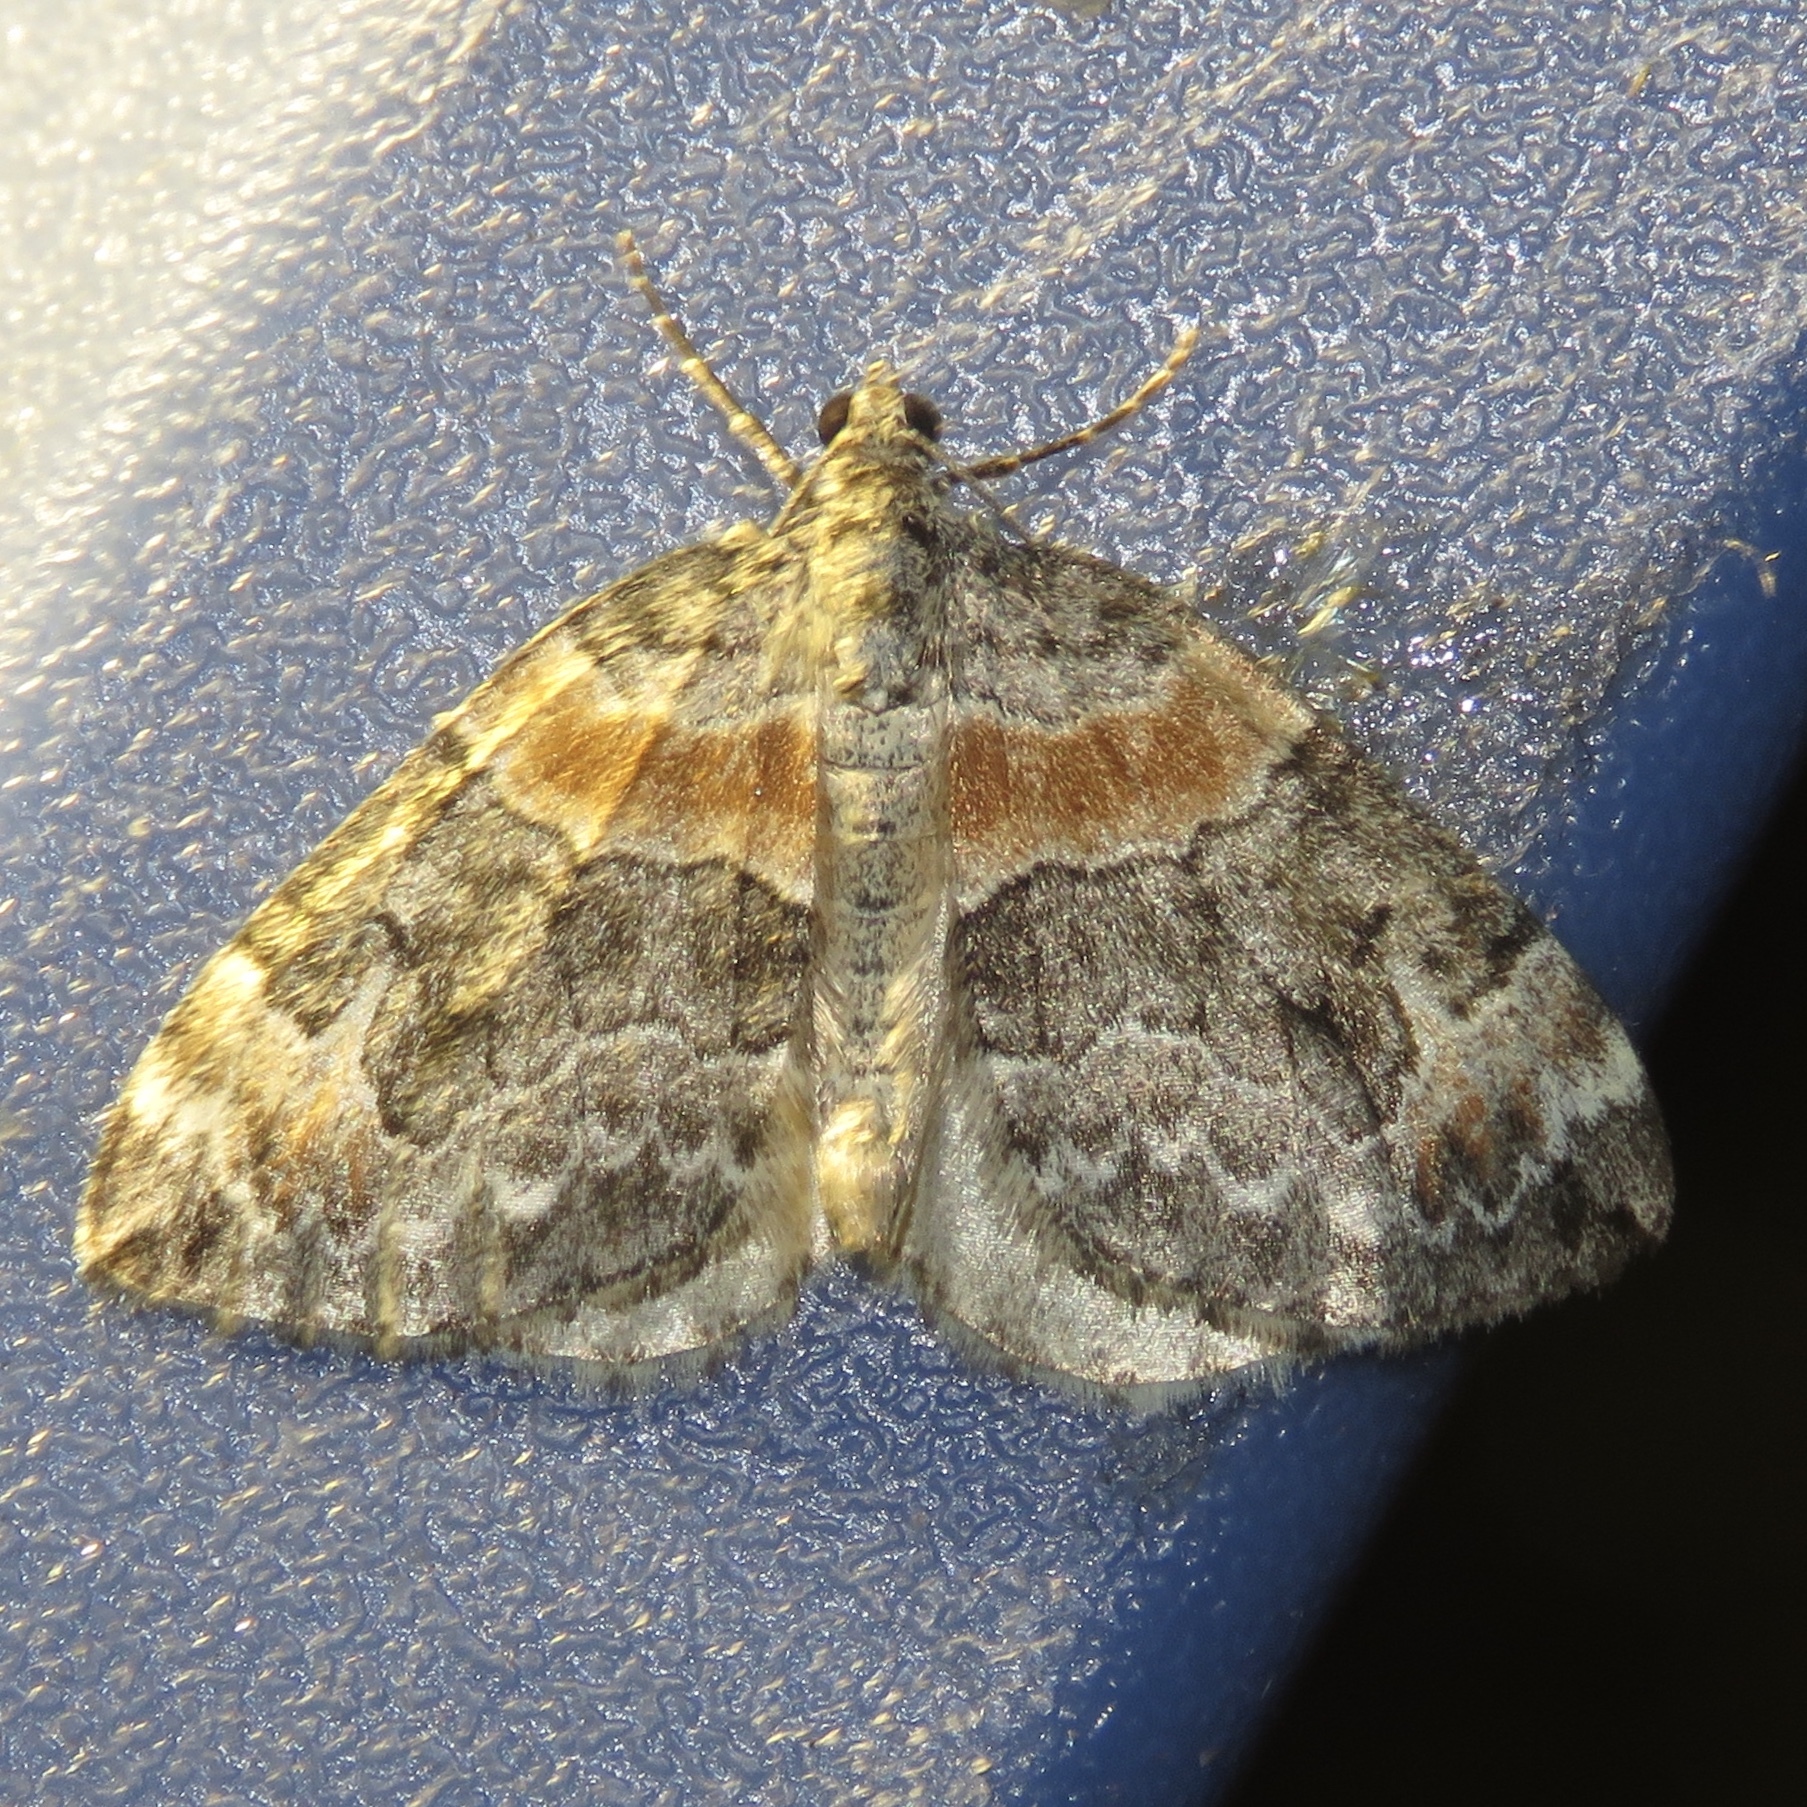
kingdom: Animalia
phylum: Arthropoda
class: Insecta
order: Lepidoptera
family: Geometridae
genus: Dysstroma
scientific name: Dysstroma hersiliata
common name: Orange-barred carpet
